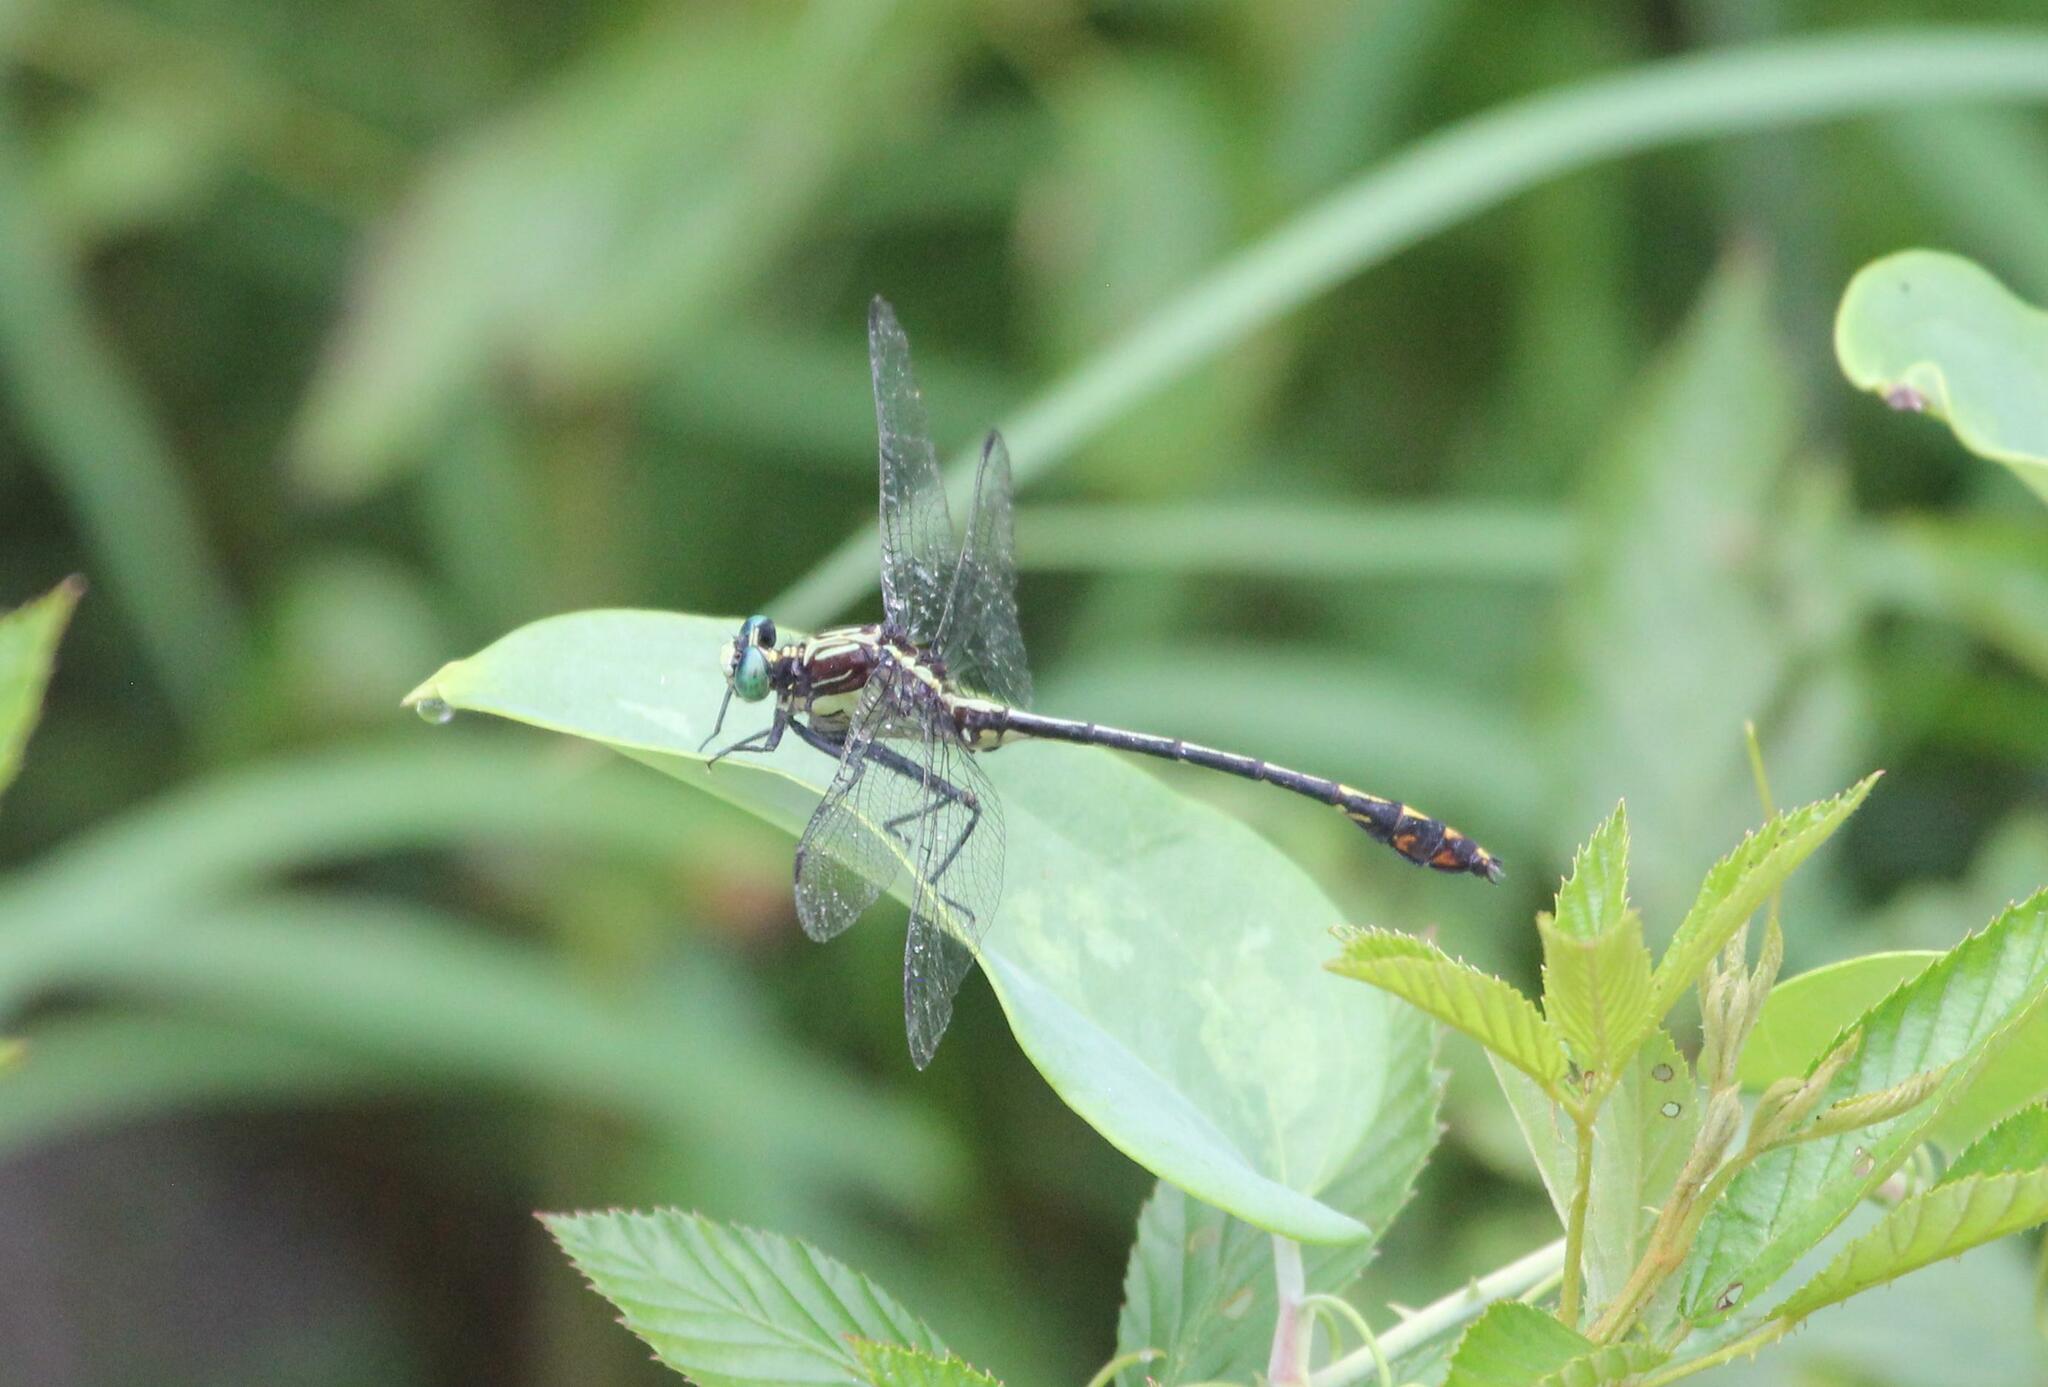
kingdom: Animalia
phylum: Arthropoda
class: Insecta
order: Odonata
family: Gomphidae
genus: Dromogomphus
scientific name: Dromogomphus spinosus
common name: Black-shouldered spinyleg
